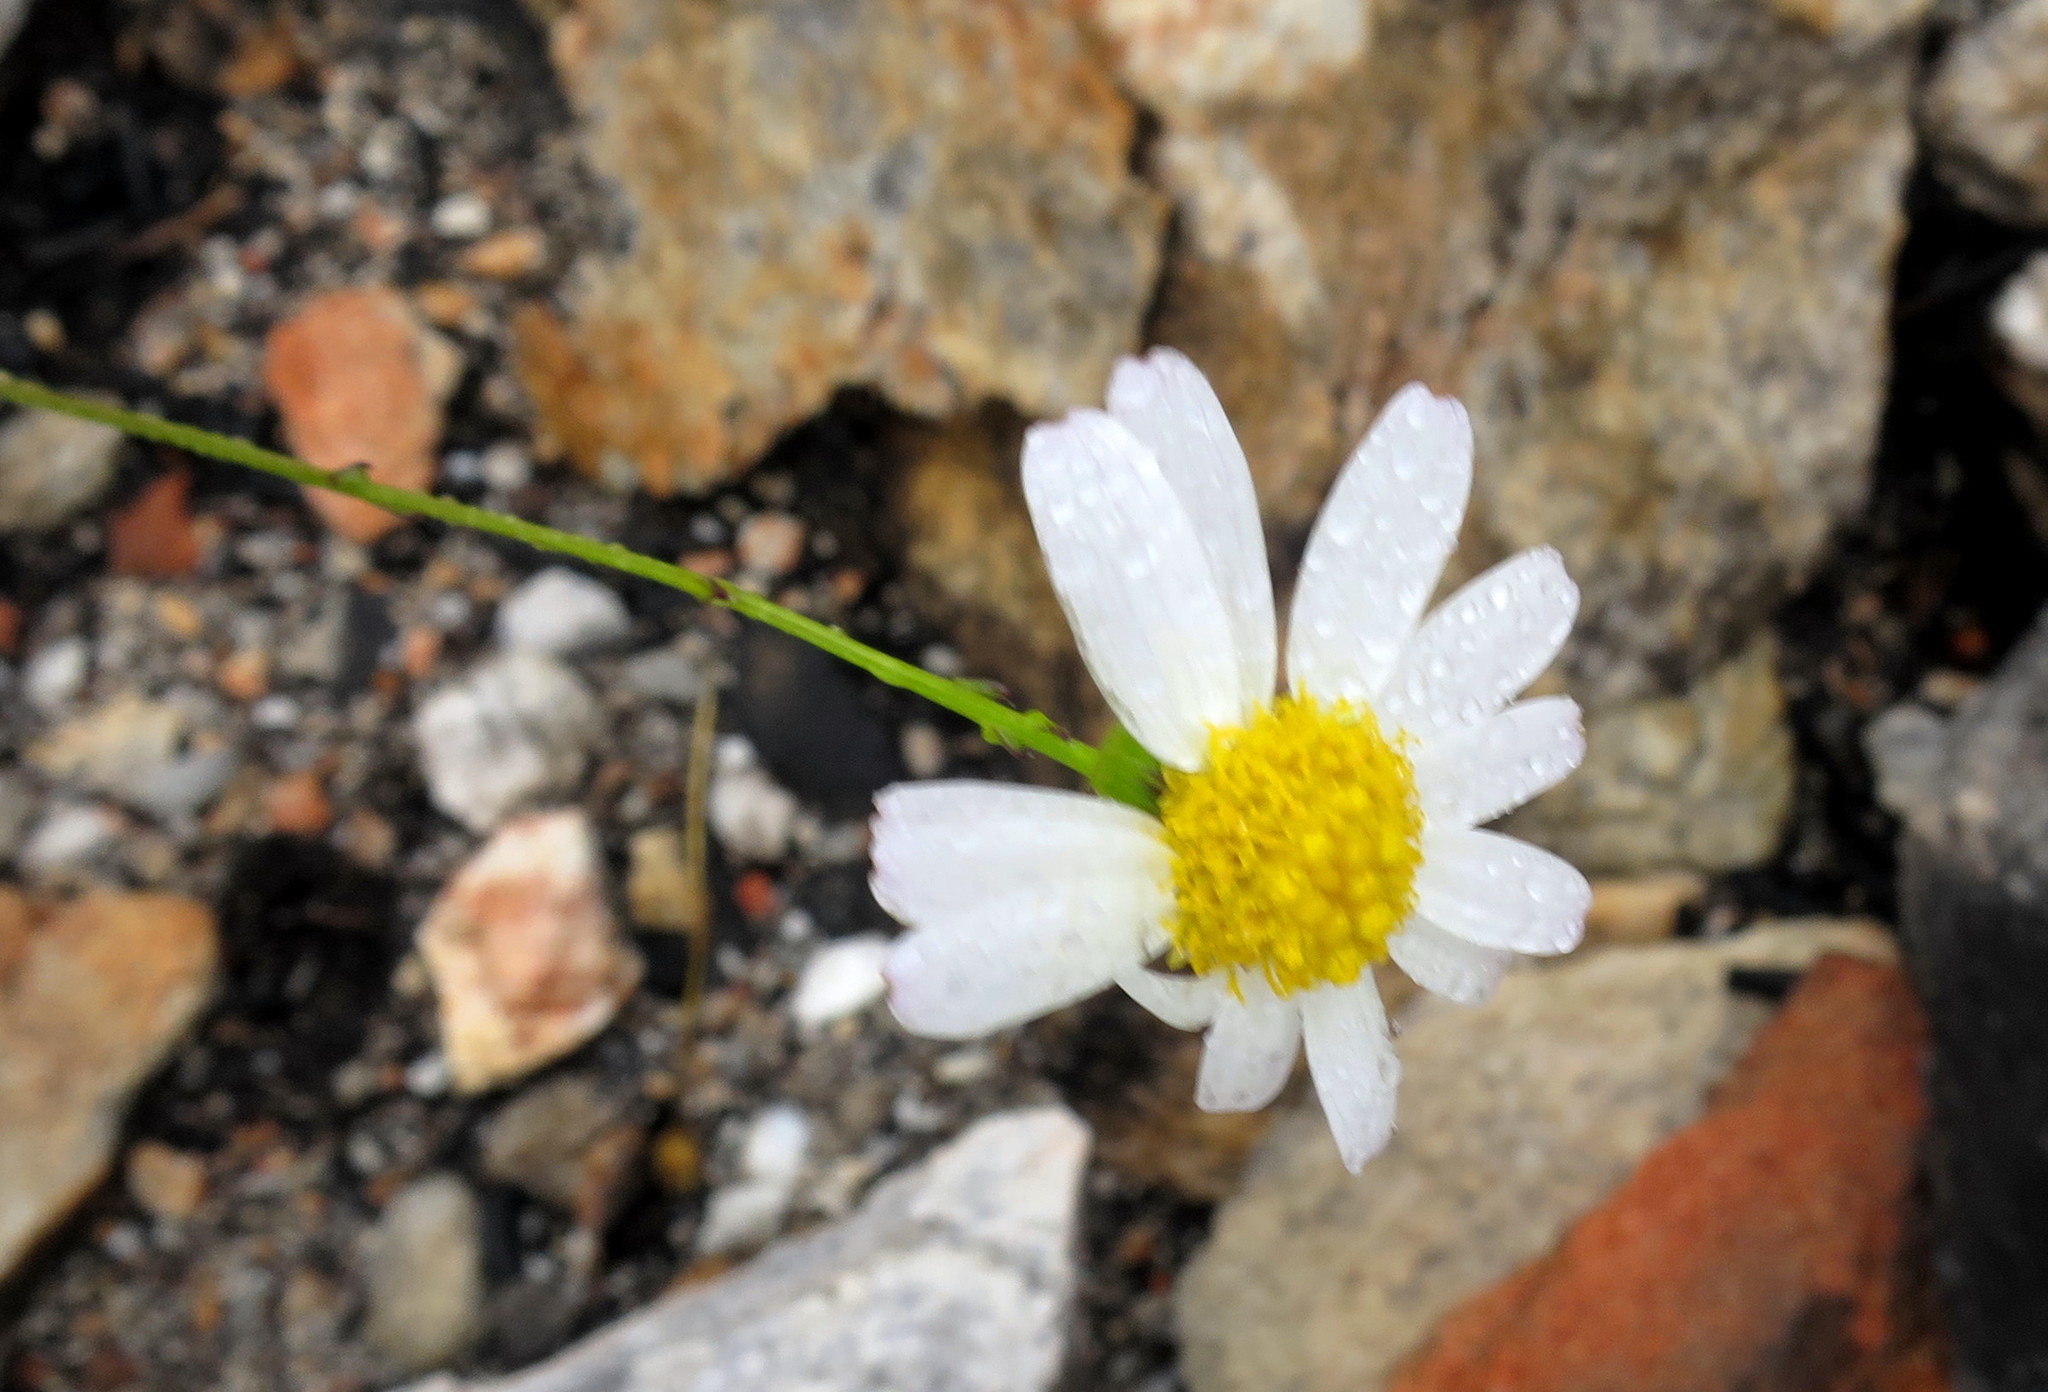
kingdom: Plantae
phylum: Tracheophyta
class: Magnoliopsida
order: Asterales
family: Asteraceae
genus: Phymaspermum
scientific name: Phymaspermum leptophyllum
